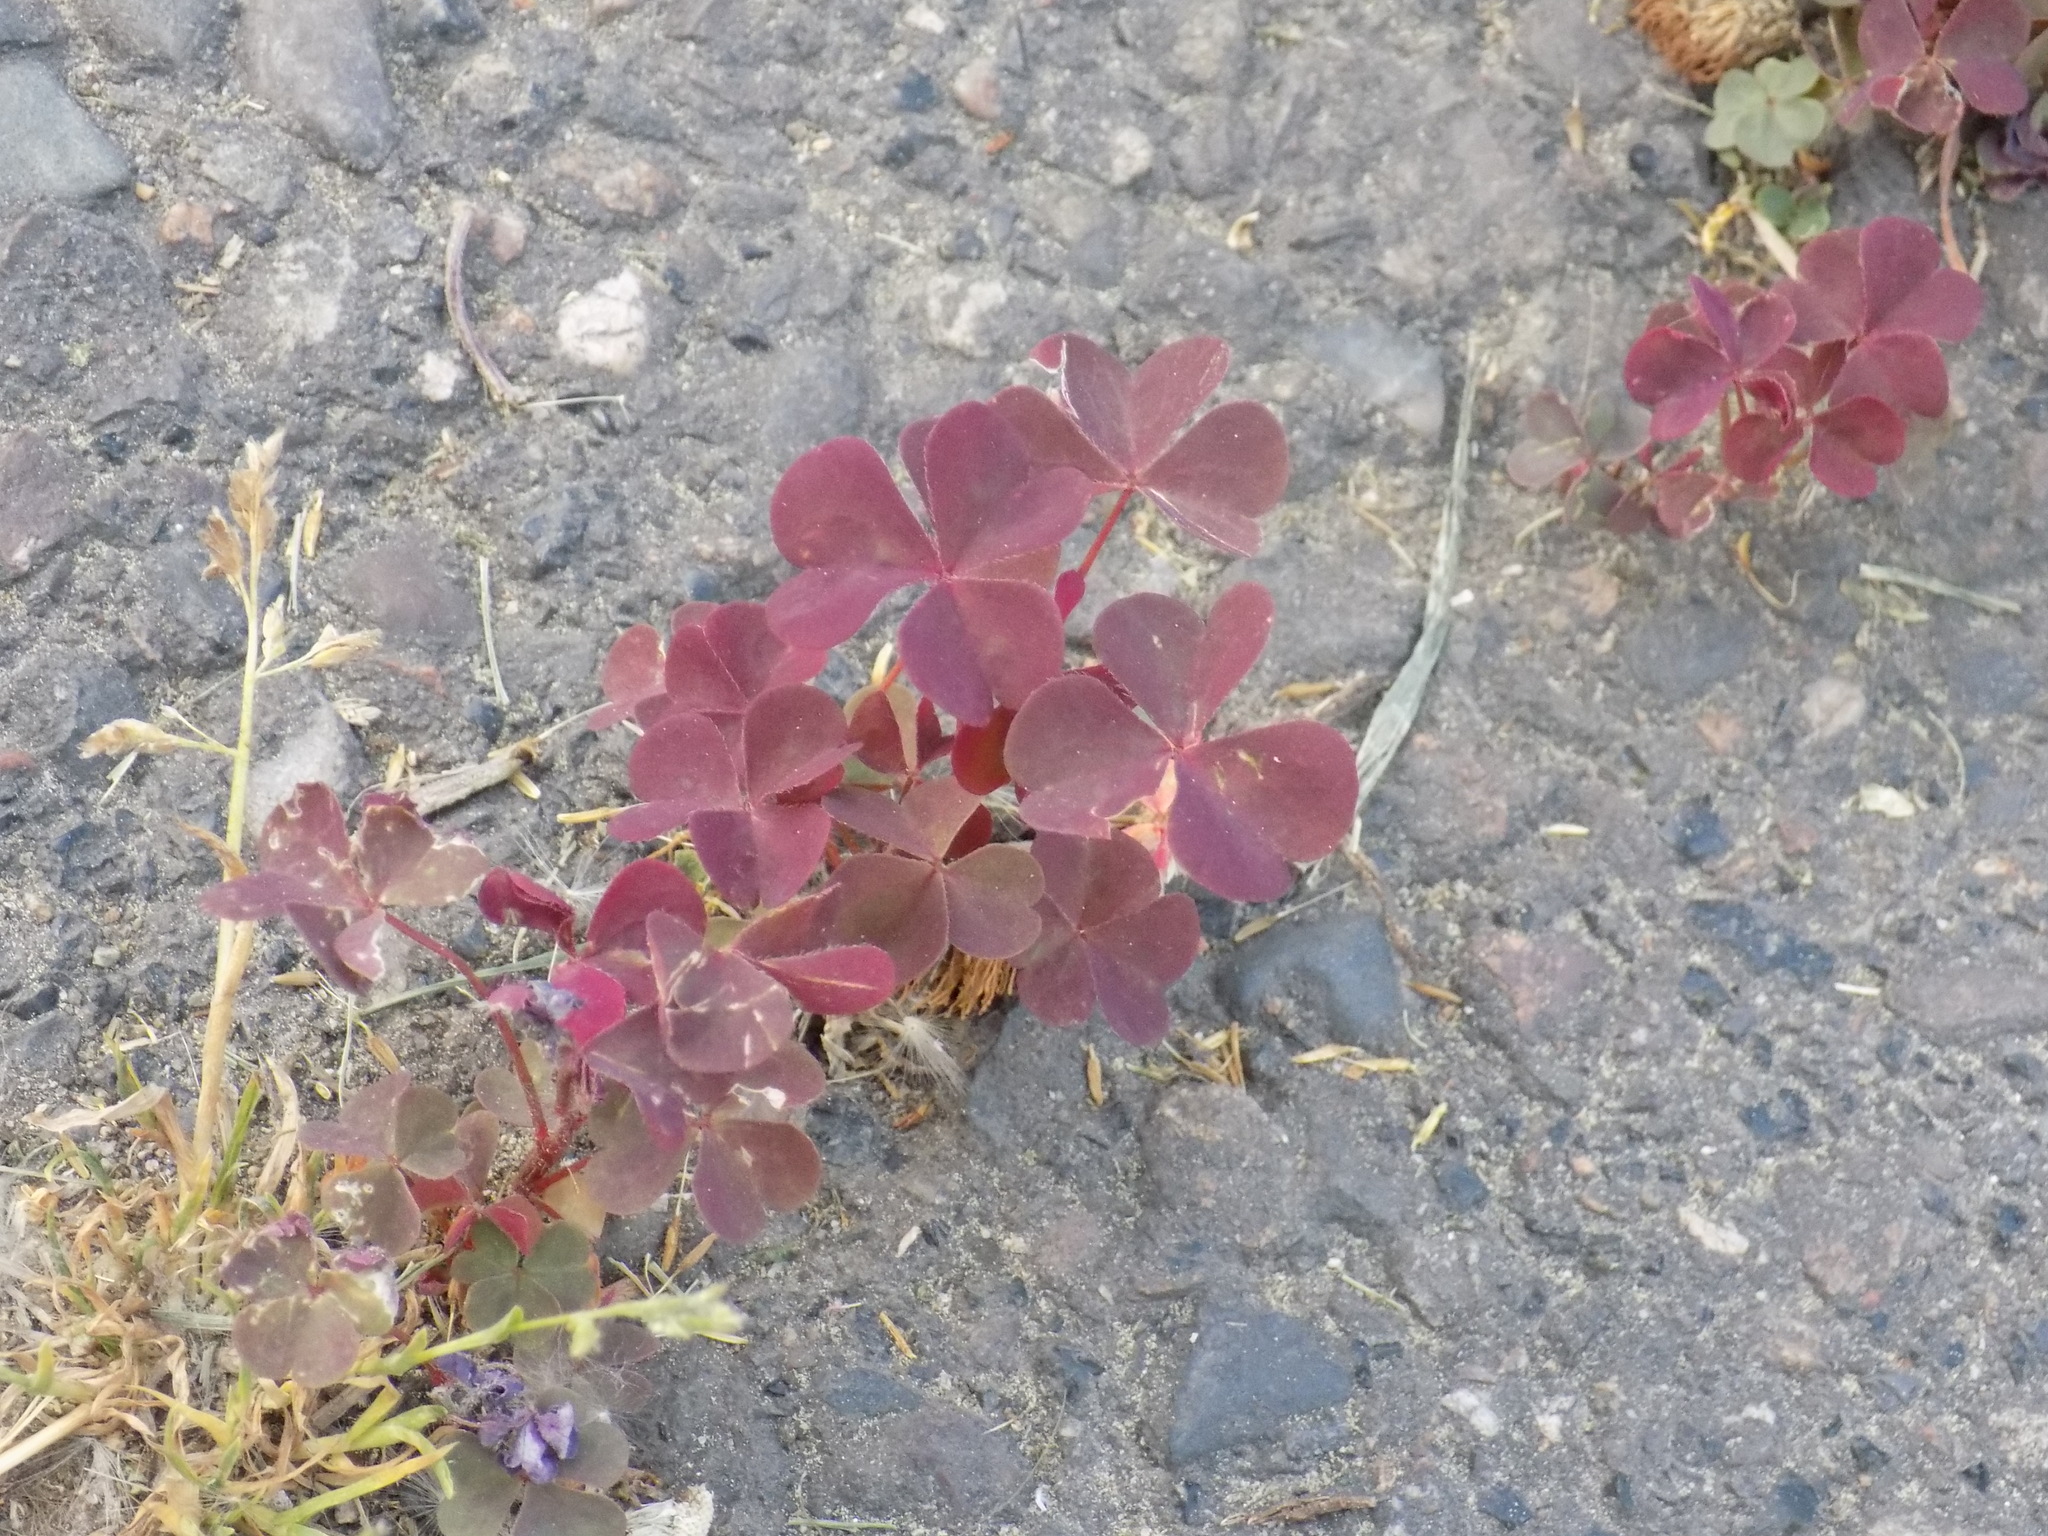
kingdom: Plantae
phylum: Tracheophyta
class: Magnoliopsida
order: Oxalidales
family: Oxalidaceae
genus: Oxalis
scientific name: Oxalis stricta
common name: Upright yellow-sorrel
